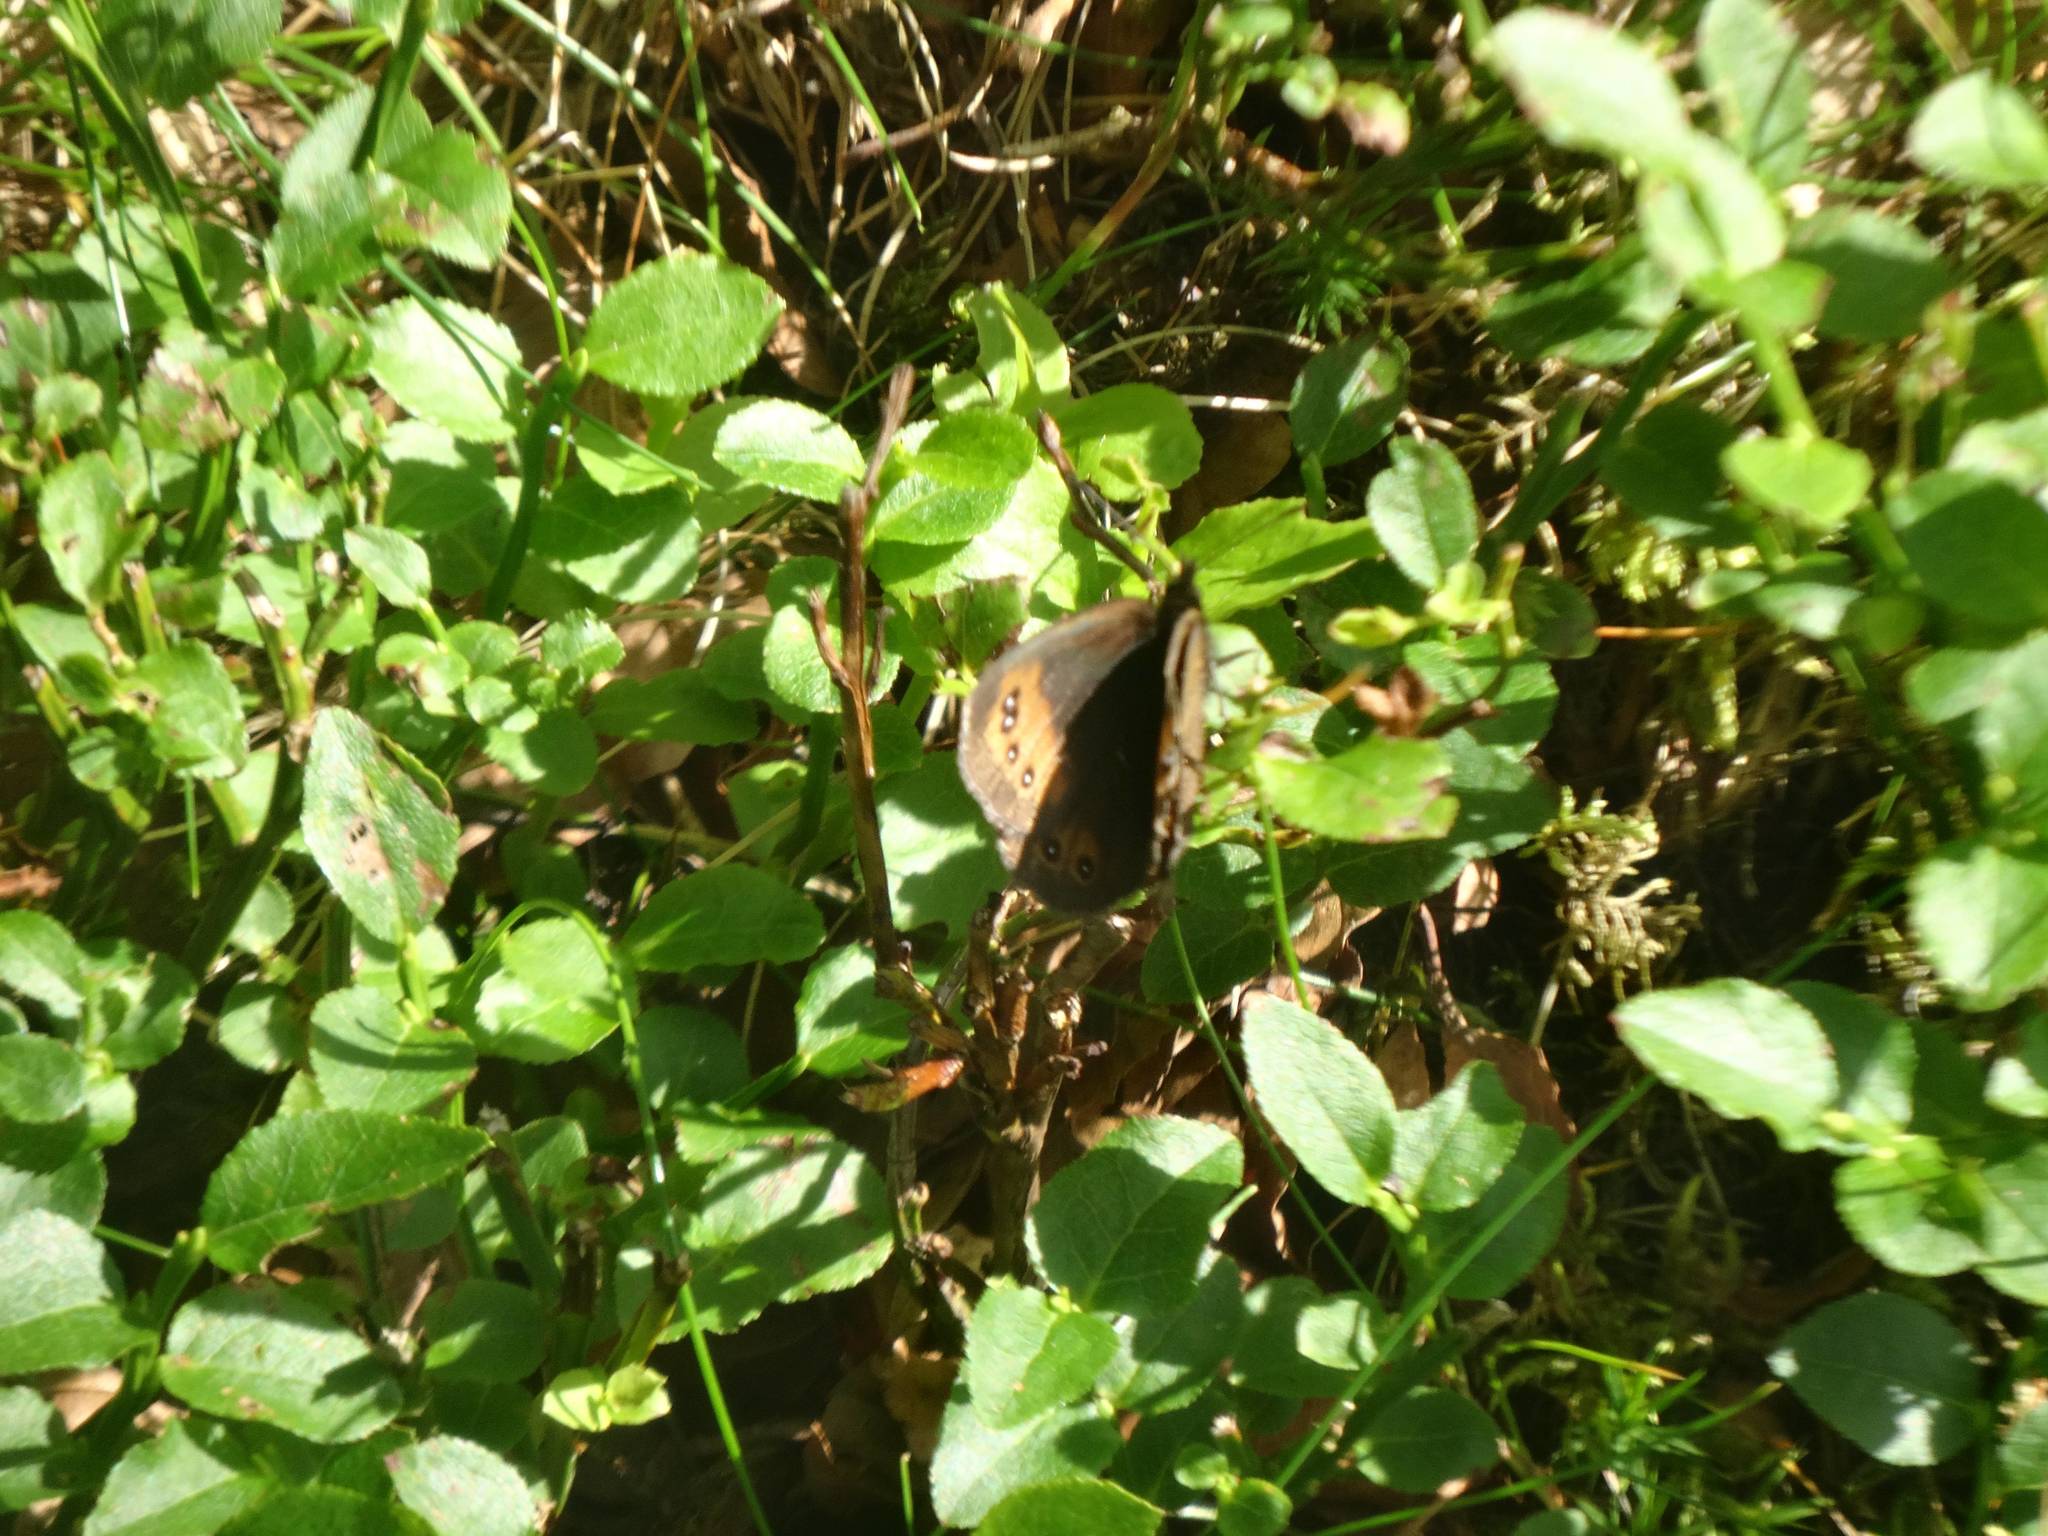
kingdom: Animalia
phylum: Arthropoda
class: Insecta
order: Lepidoptera
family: Nymphalidae
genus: Erebia
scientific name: Erebia meolans
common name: Piedmont ringlet
